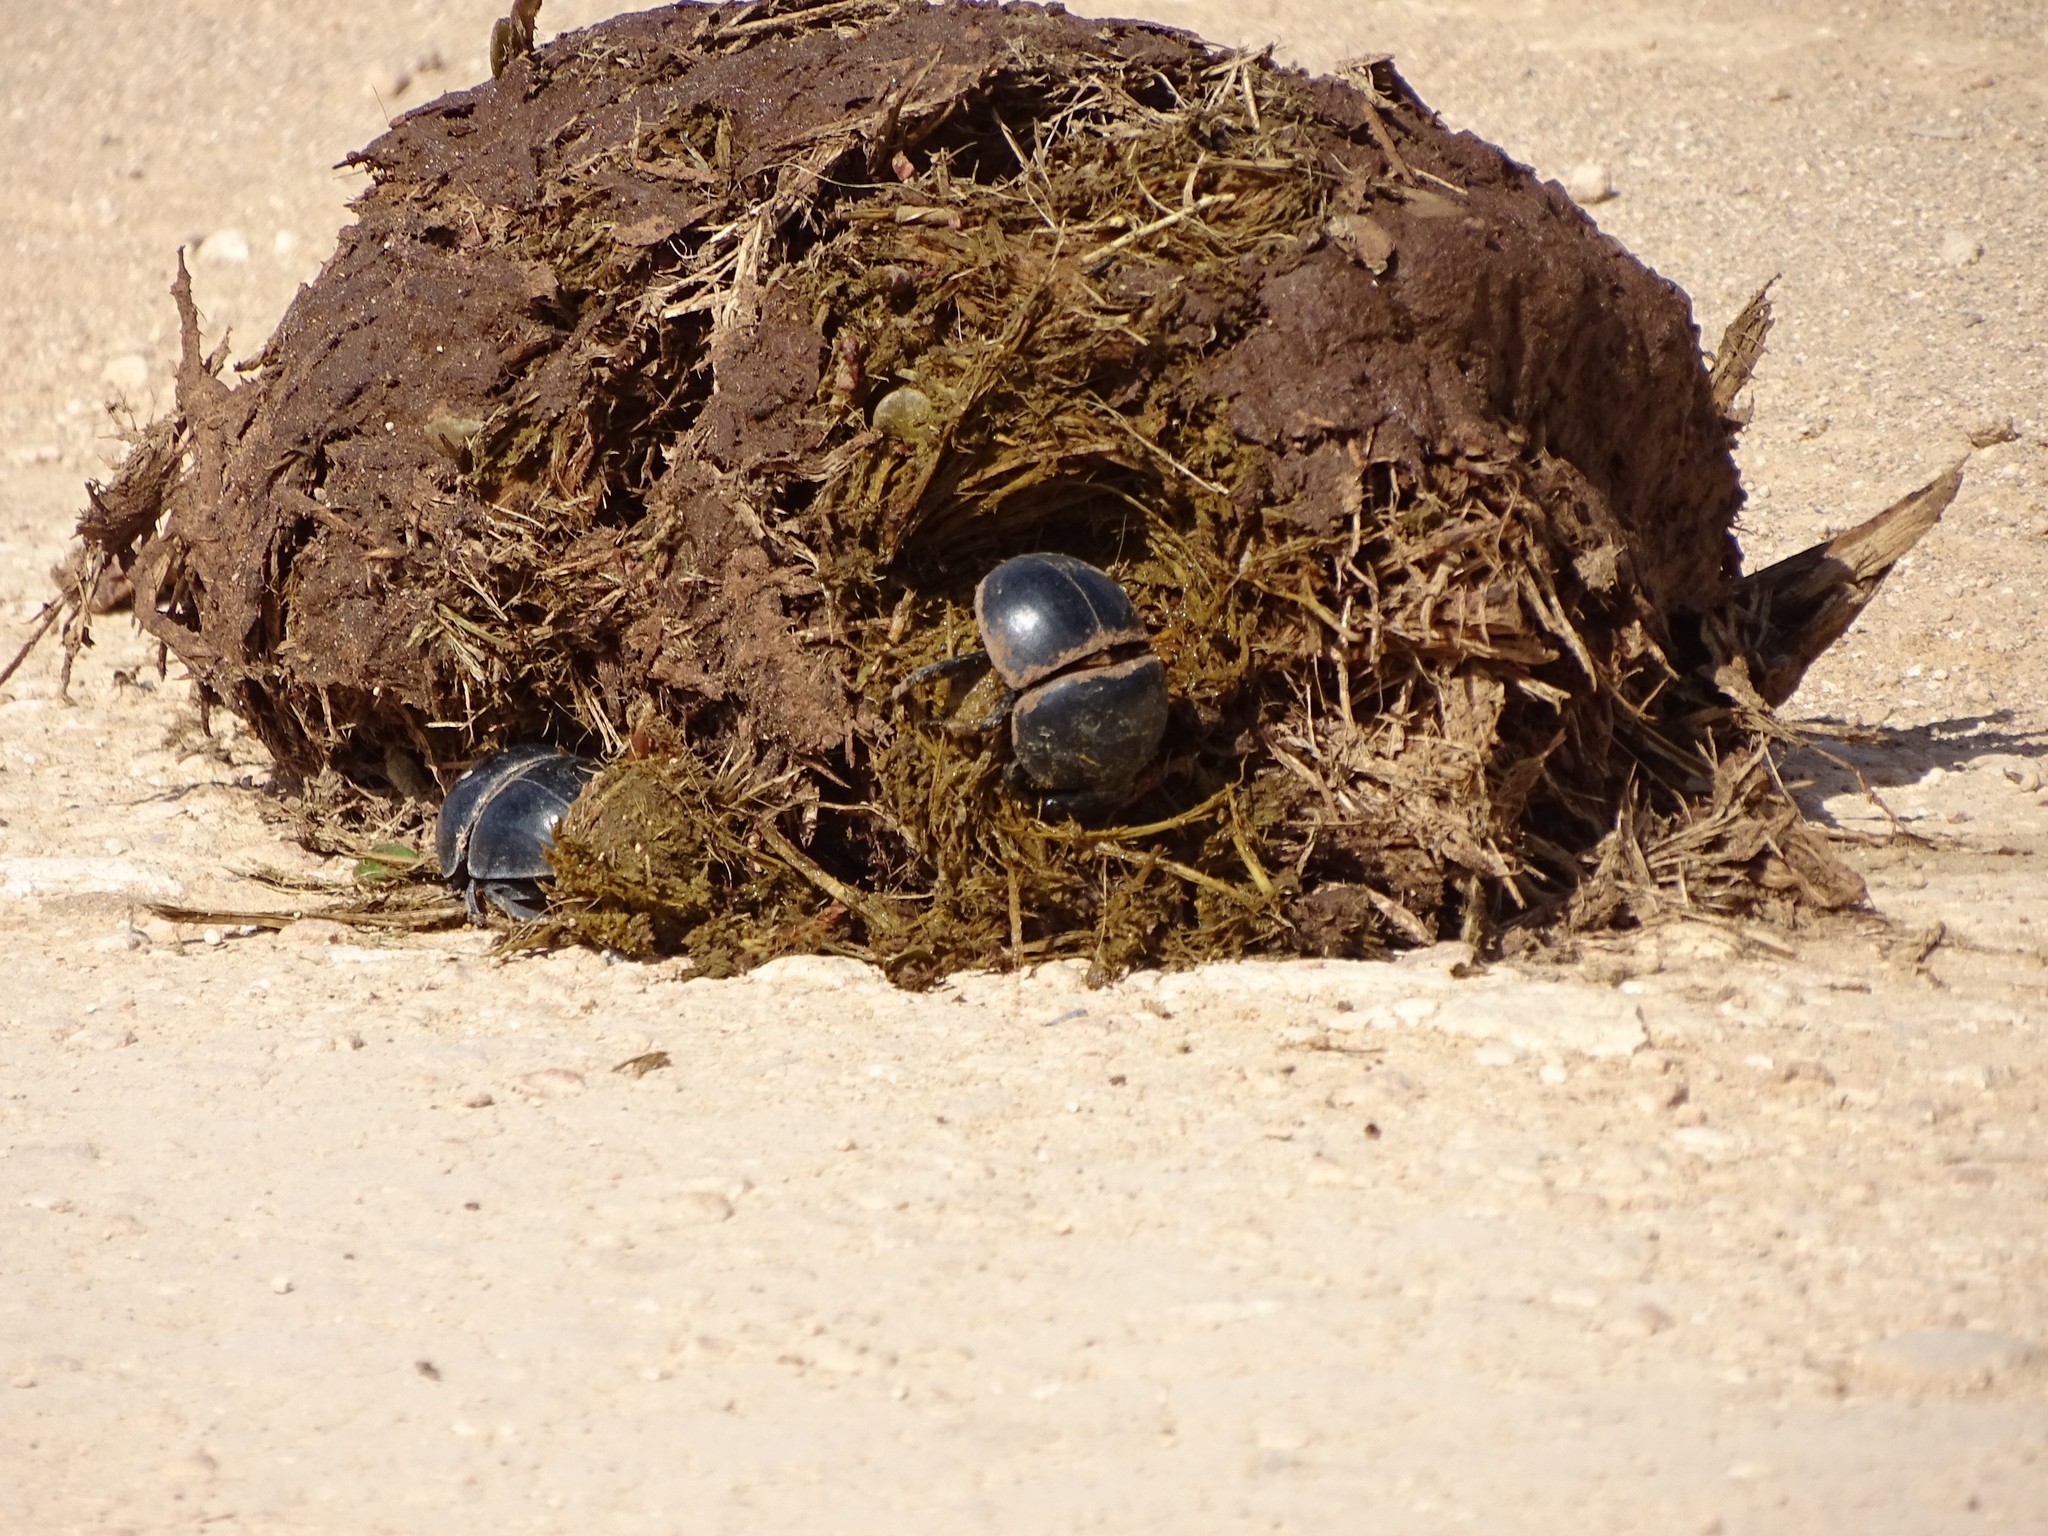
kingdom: Animalia
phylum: Arthropoda
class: Insecta
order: Coleoptera
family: Scarabaeidae
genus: Circellium
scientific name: Circellium bacchus
